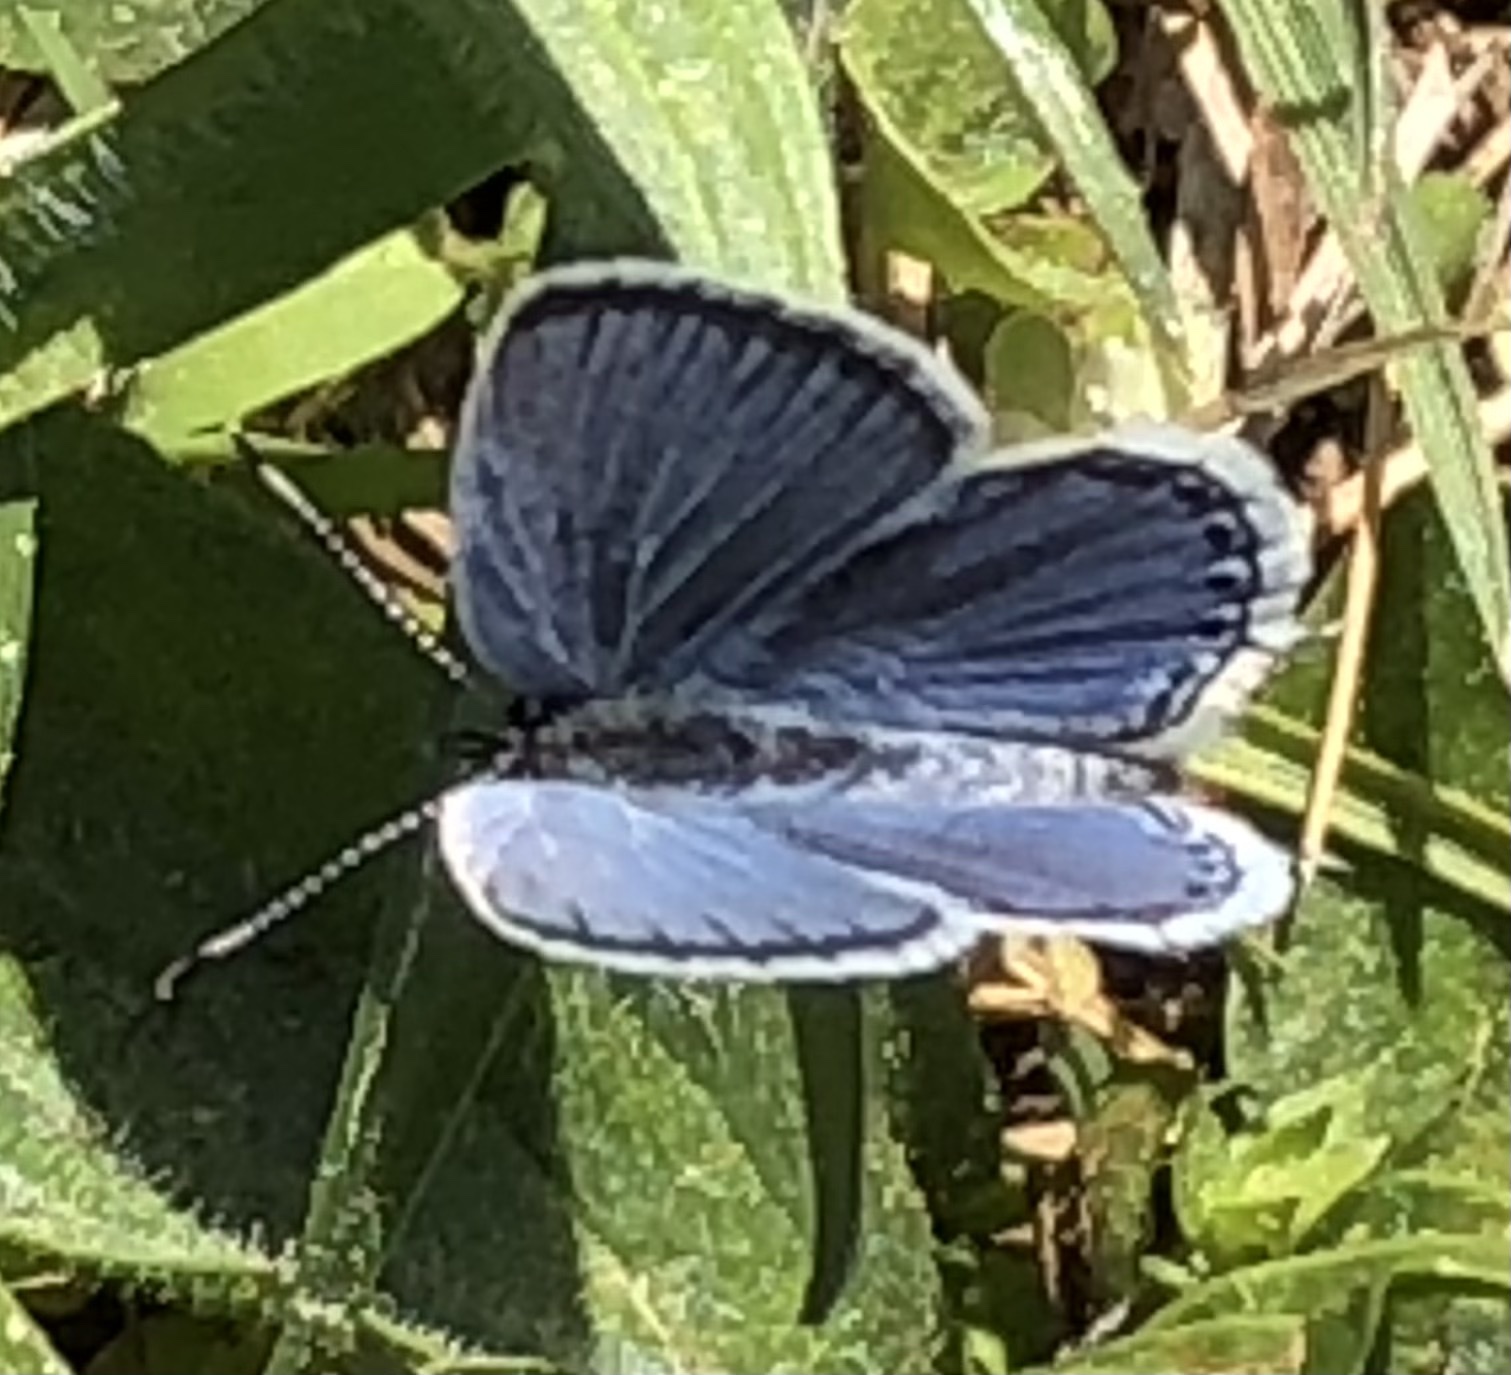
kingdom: Animalia
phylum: Arthropoda
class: Insecta
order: Lepidoptera
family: Lycaenidae
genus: Elkalyce
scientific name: Elkalyce comyntas
